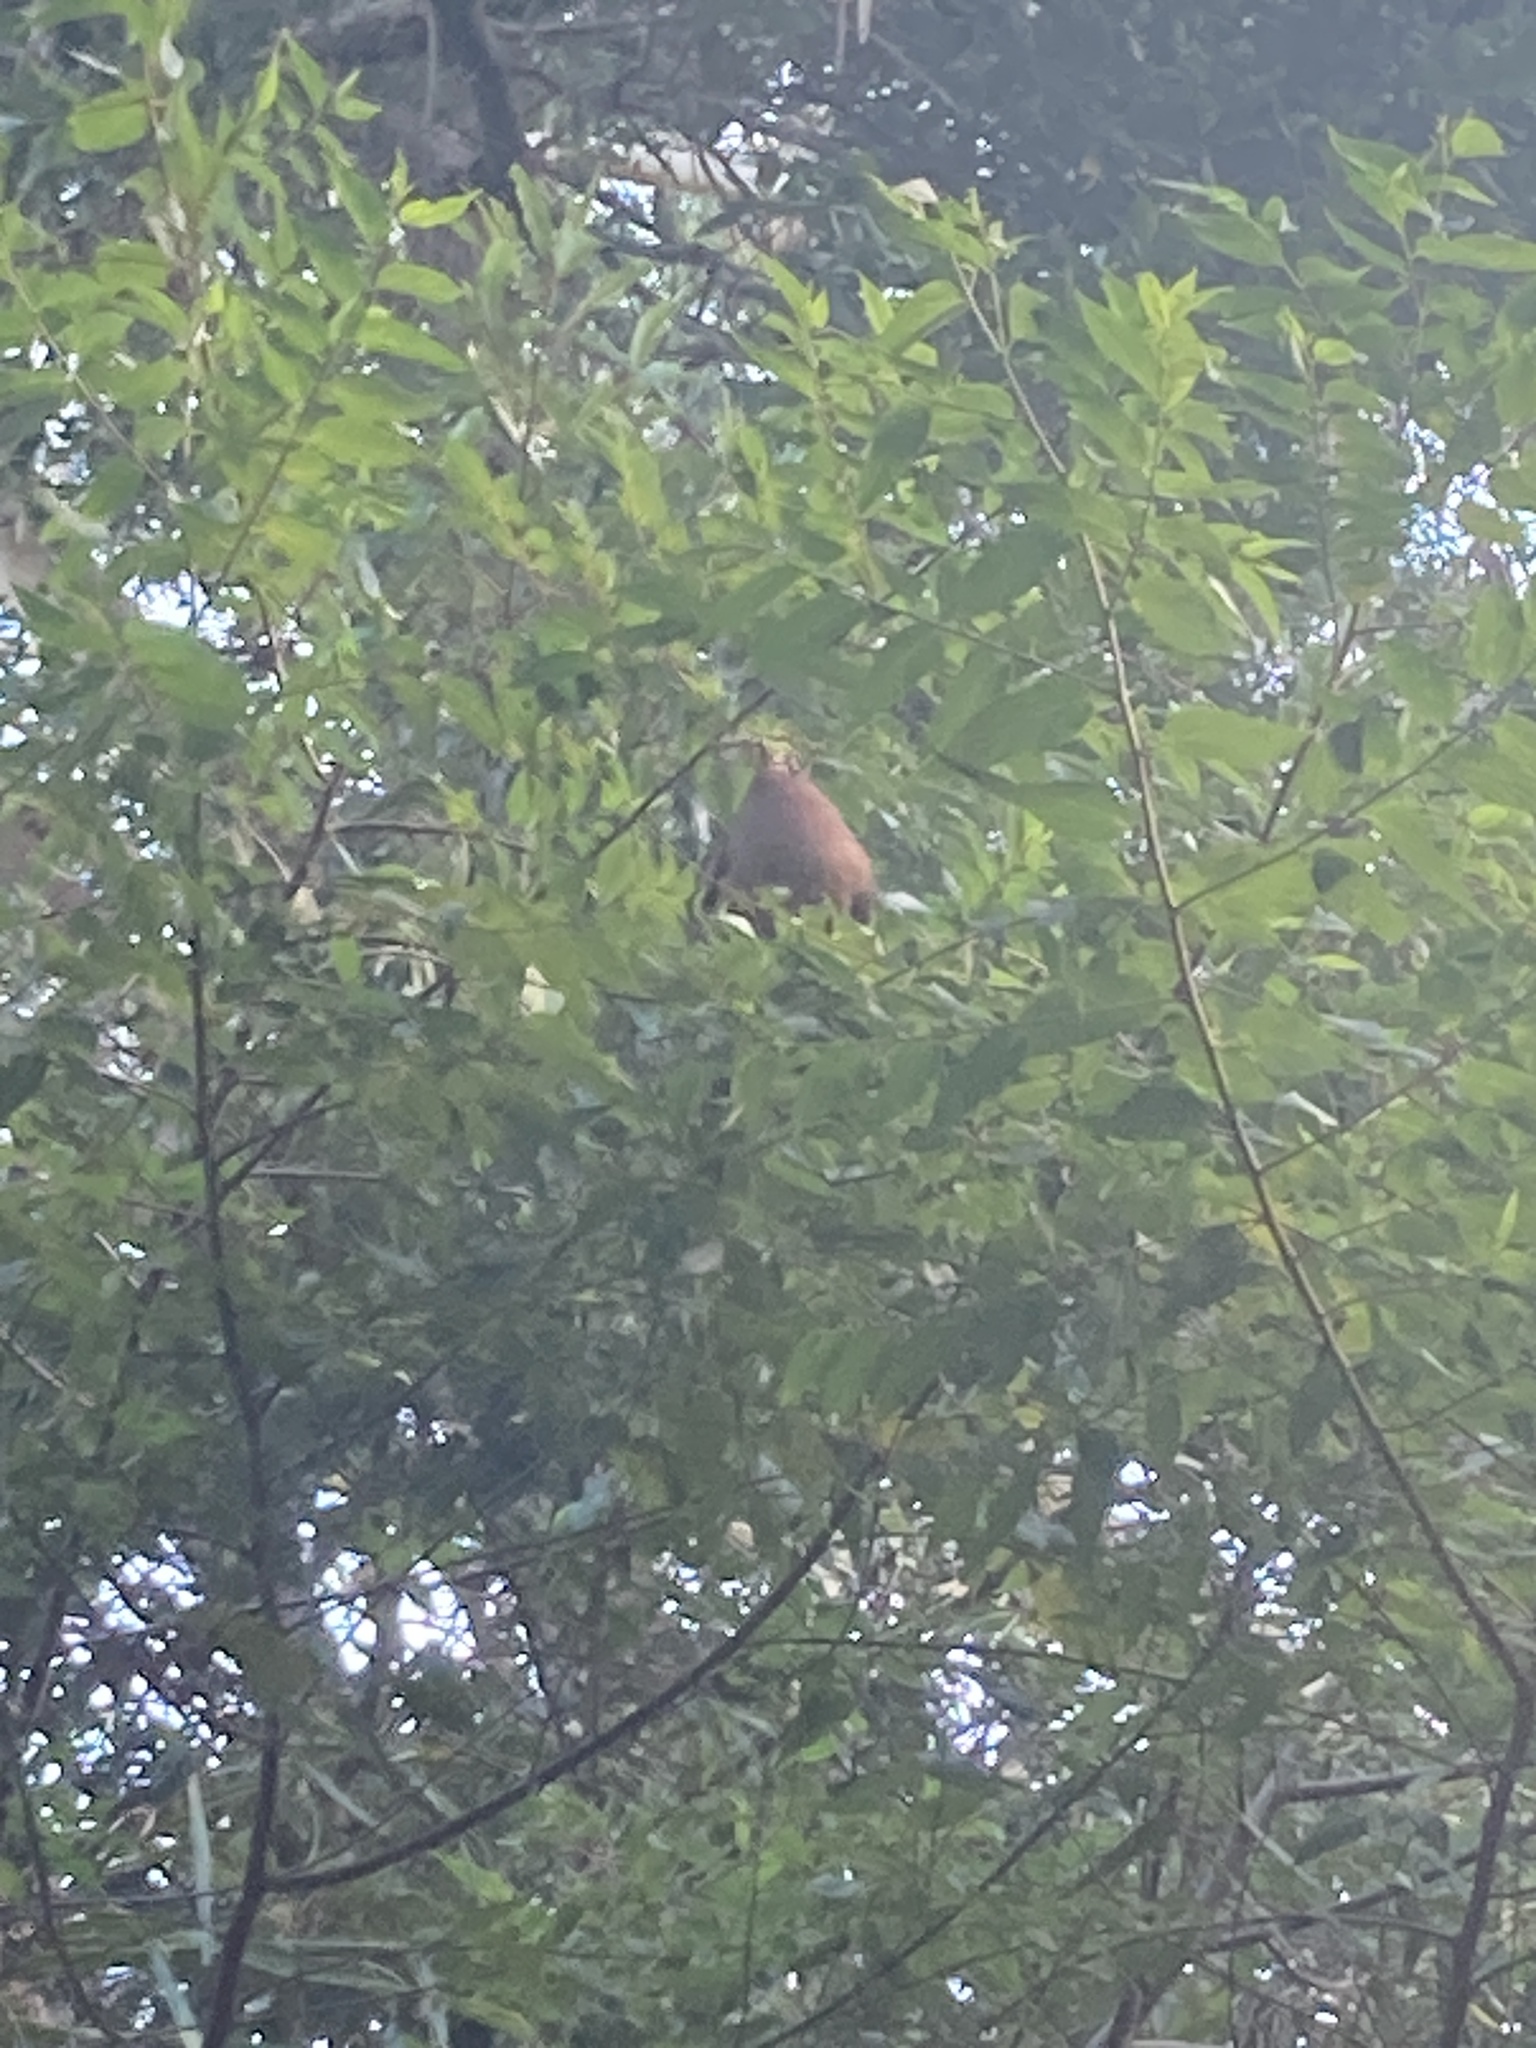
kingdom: Animalia
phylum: Chordata
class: Aves
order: Columbiformes
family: Columbidae
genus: Macropygia
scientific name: Macropygia phasianella
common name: Brown cuckoo-dove
